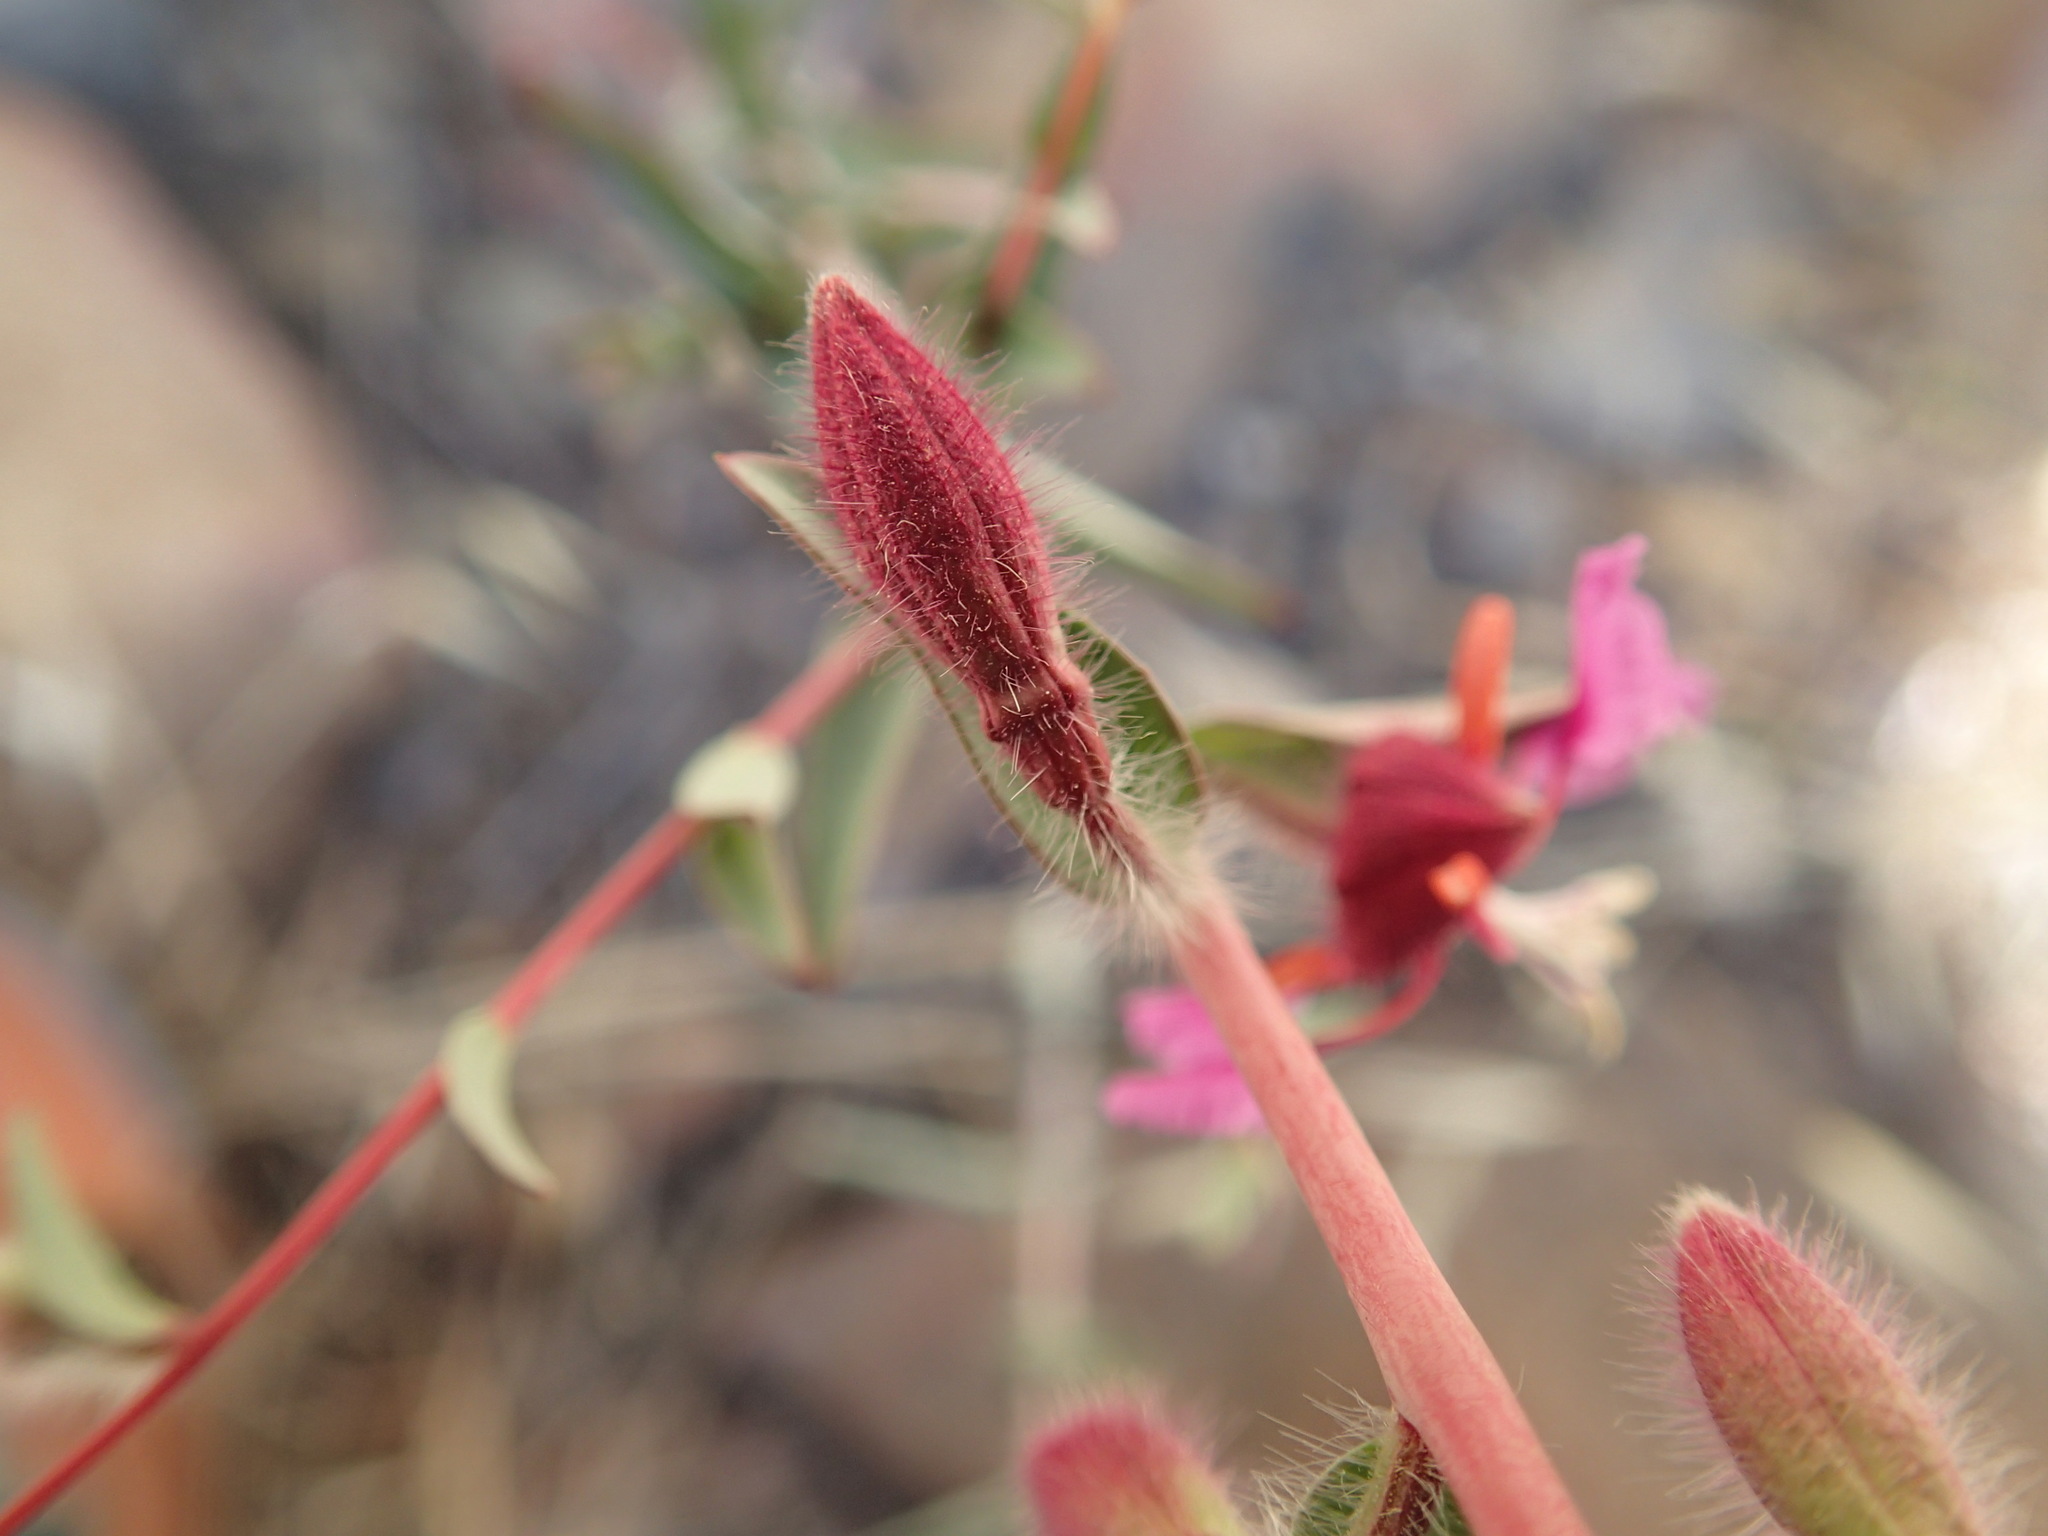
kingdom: Plantae
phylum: Tracheophyta
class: Magnoliopsida
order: Myrtales
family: Onagraceae
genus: Clarkia
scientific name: Clarkia unguiculata
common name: Clarkia
